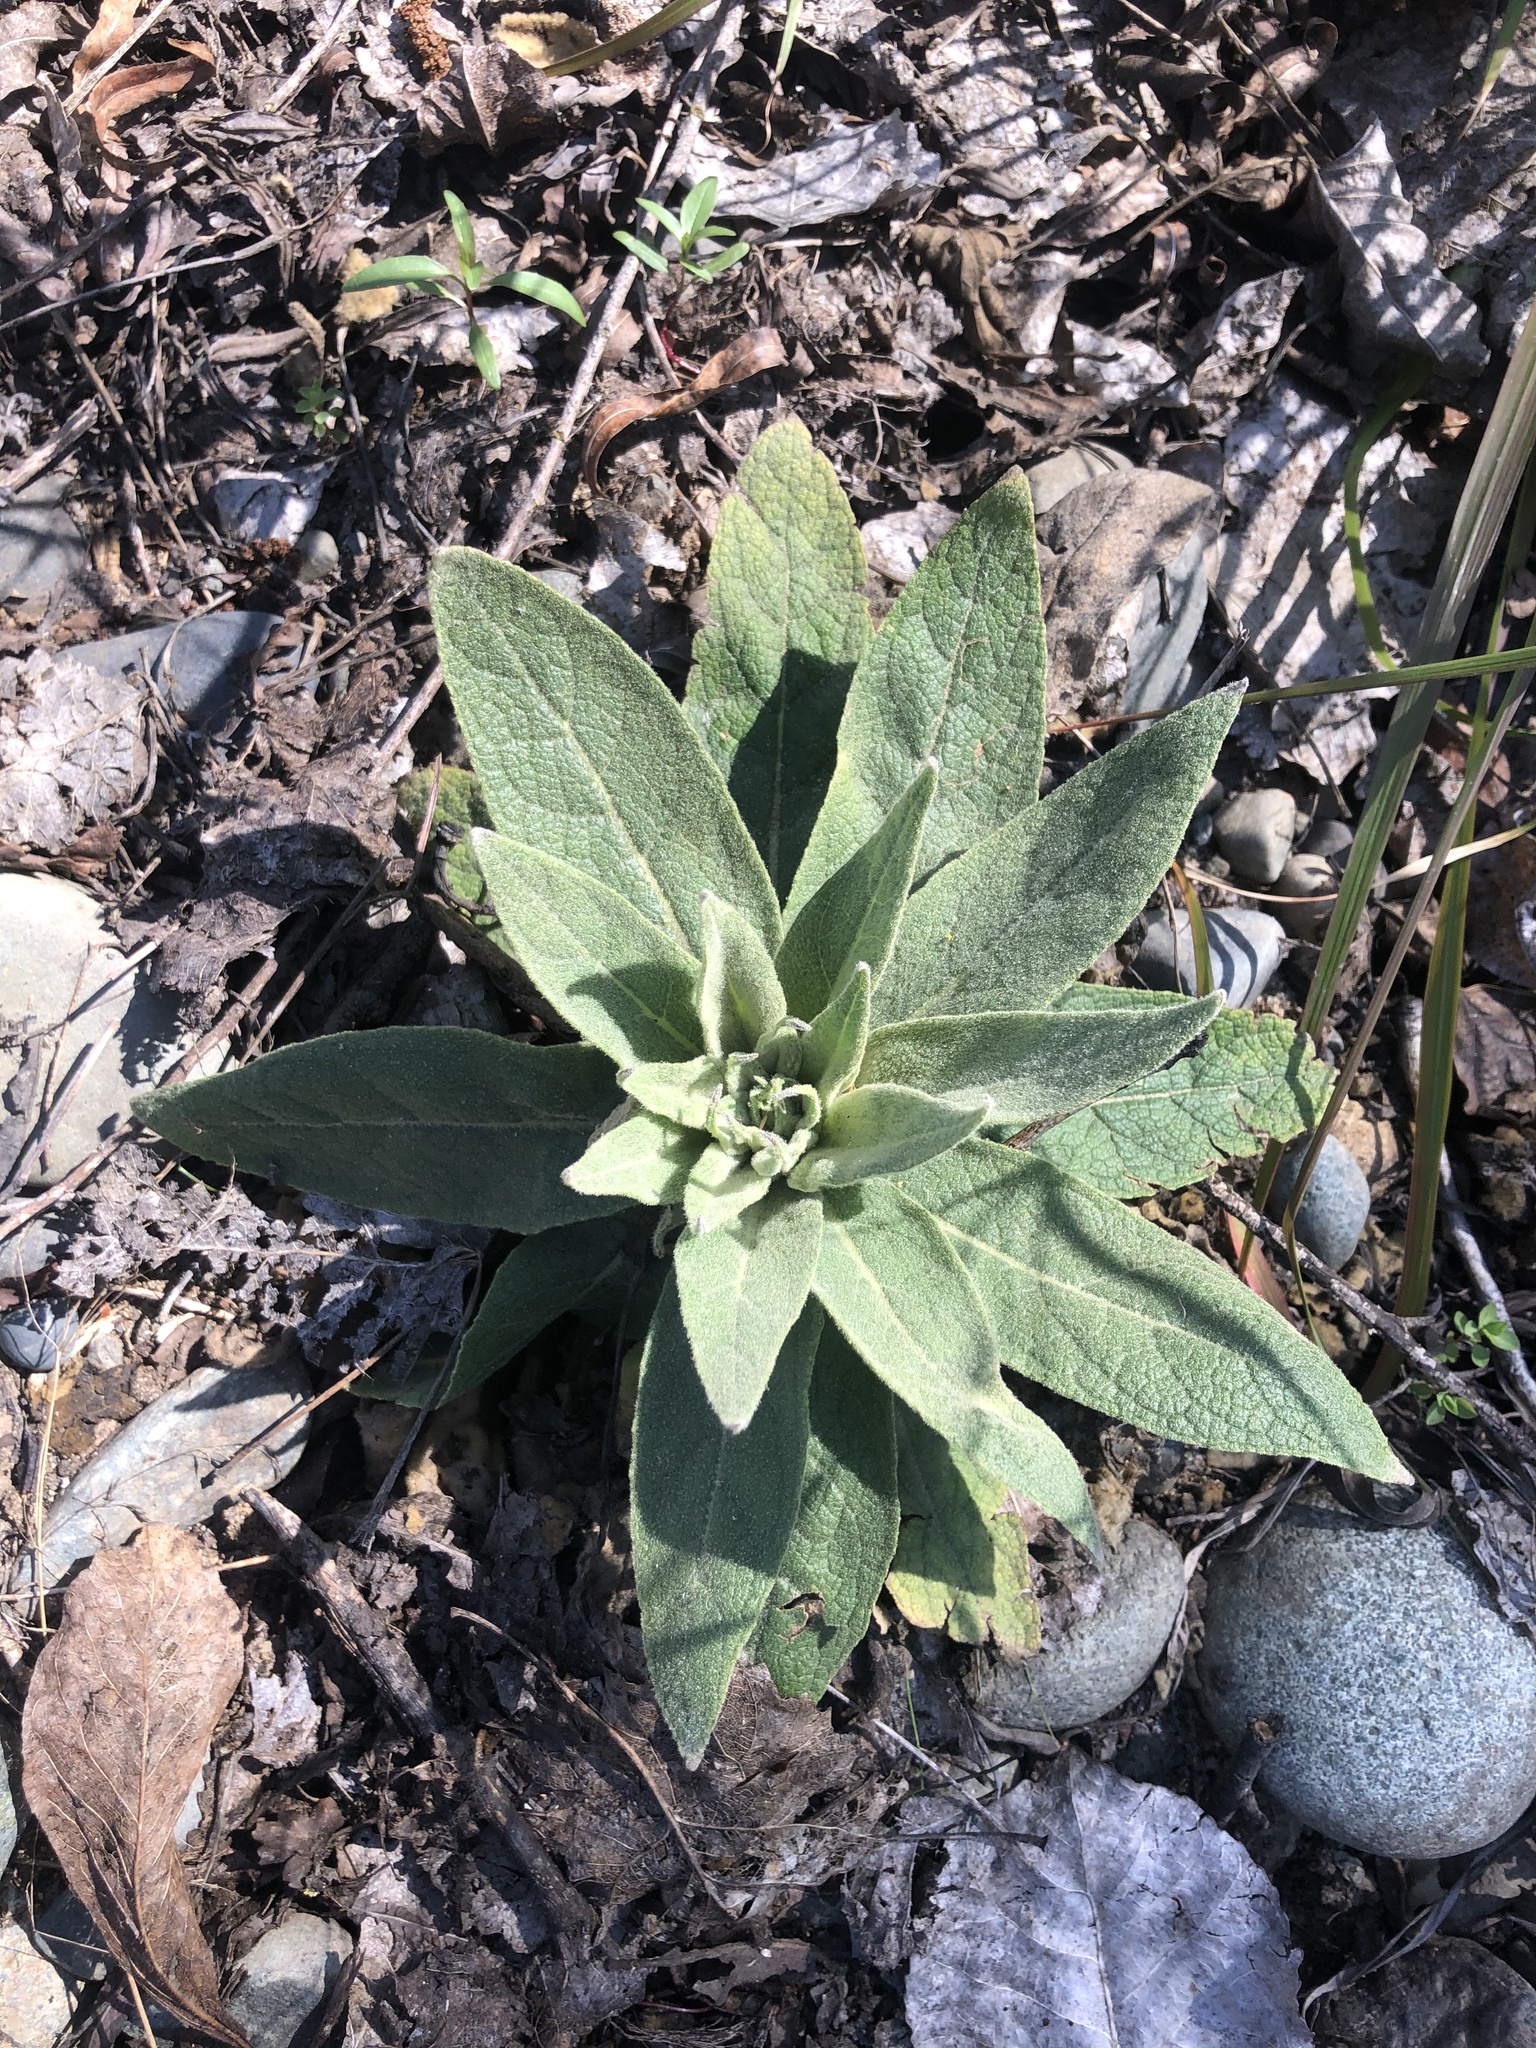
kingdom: Plantae
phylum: Tracheophyta
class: Magnoliopsida
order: Lamiales
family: Scrophulariaceae
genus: Verbascum
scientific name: Verbascum thapsus
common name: Common mullein
